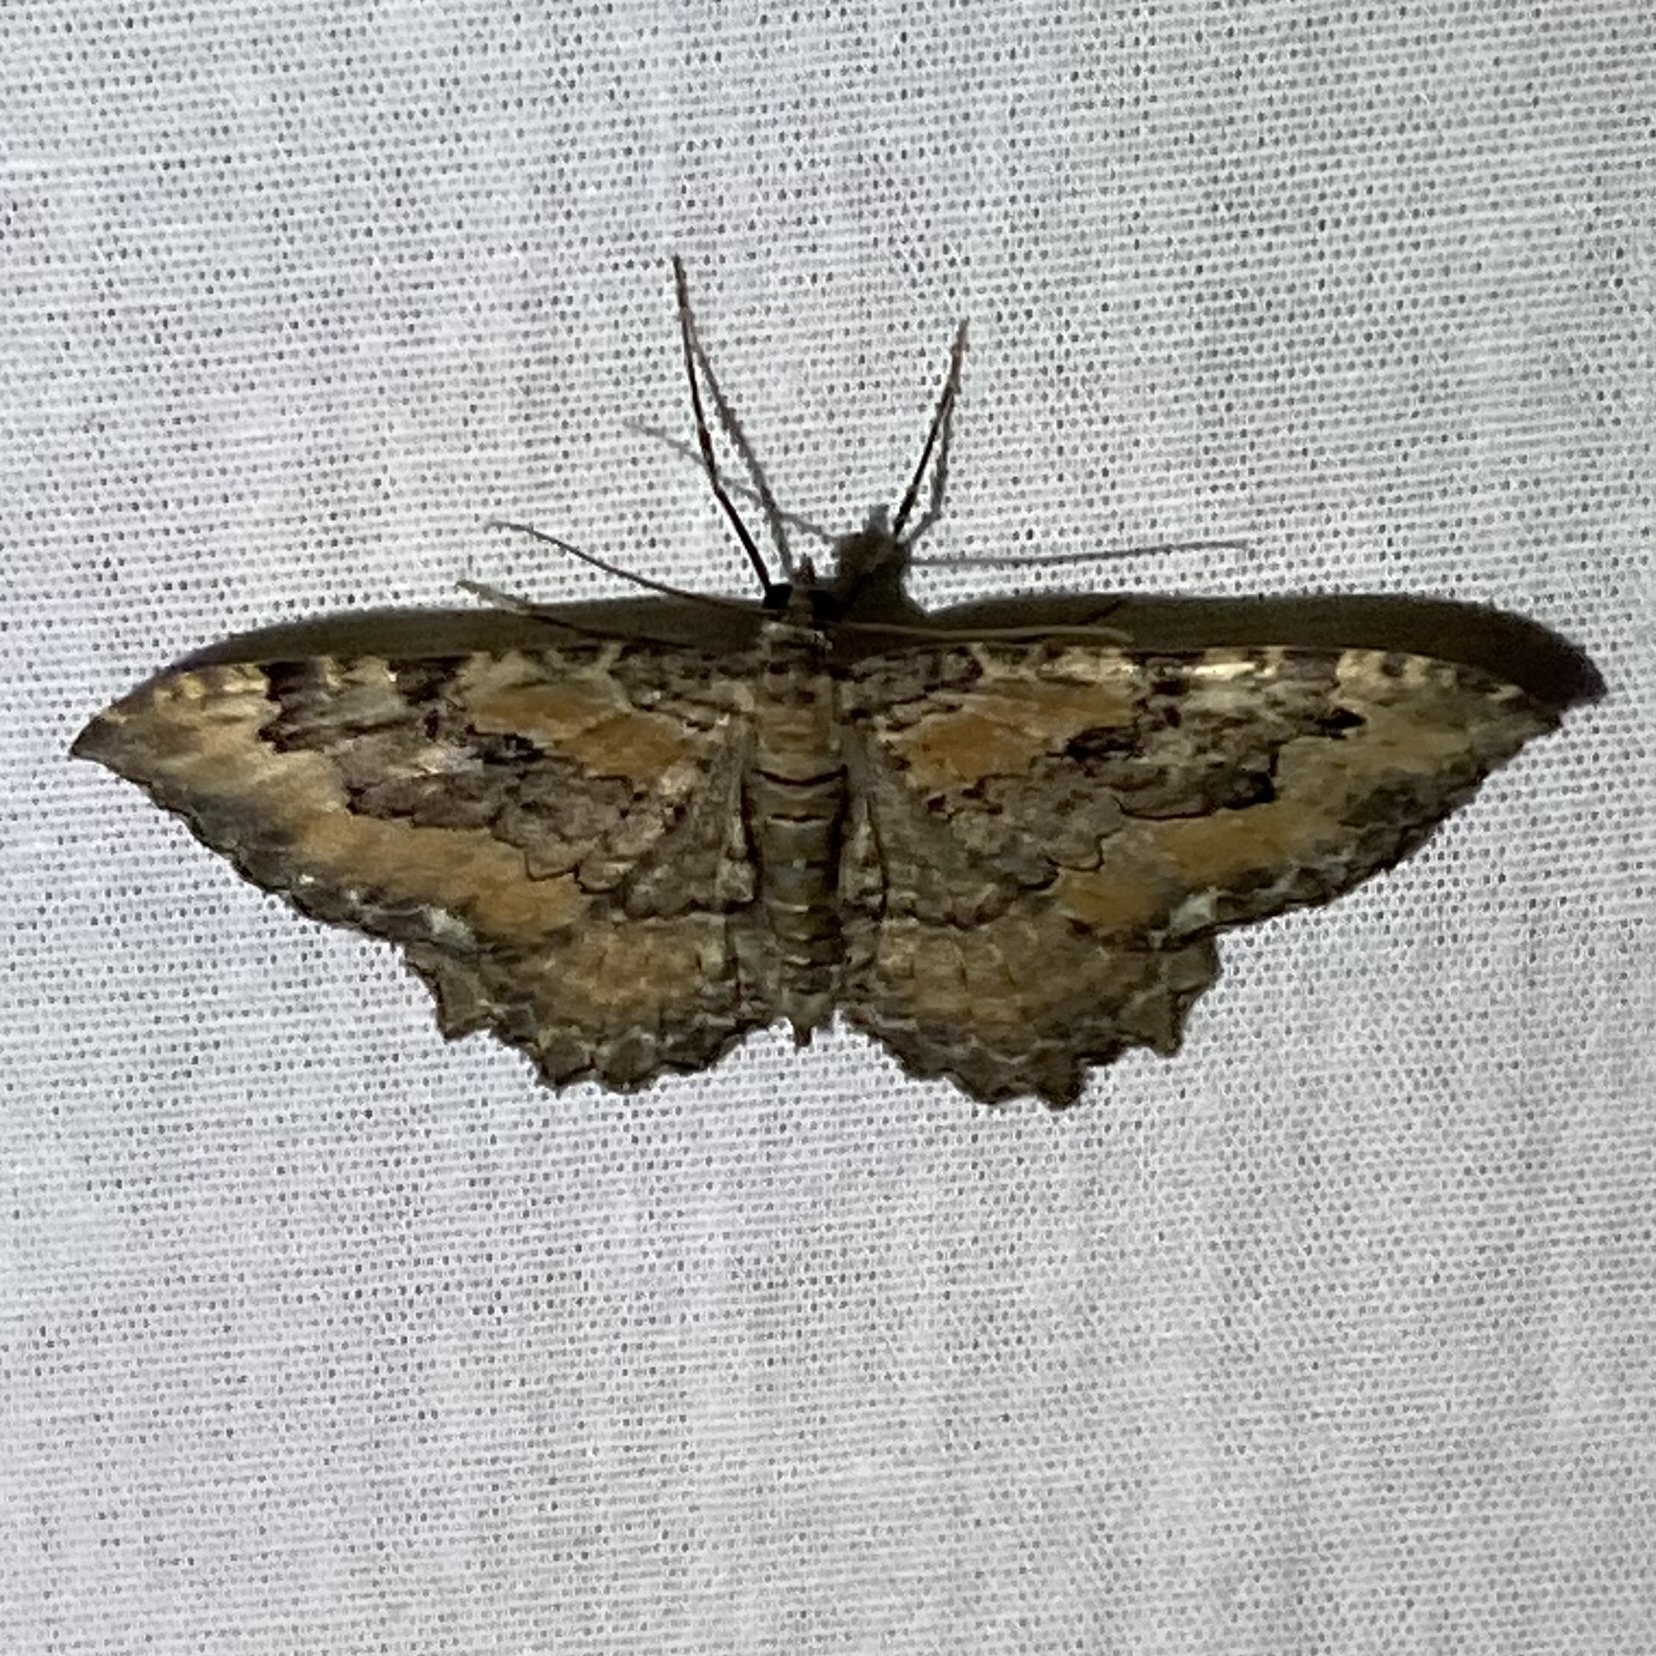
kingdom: Animalia
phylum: Arthropoda
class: Insecta
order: Lepidoptera
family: Geometridae
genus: Rheumaptera
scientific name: Rheumaptera
